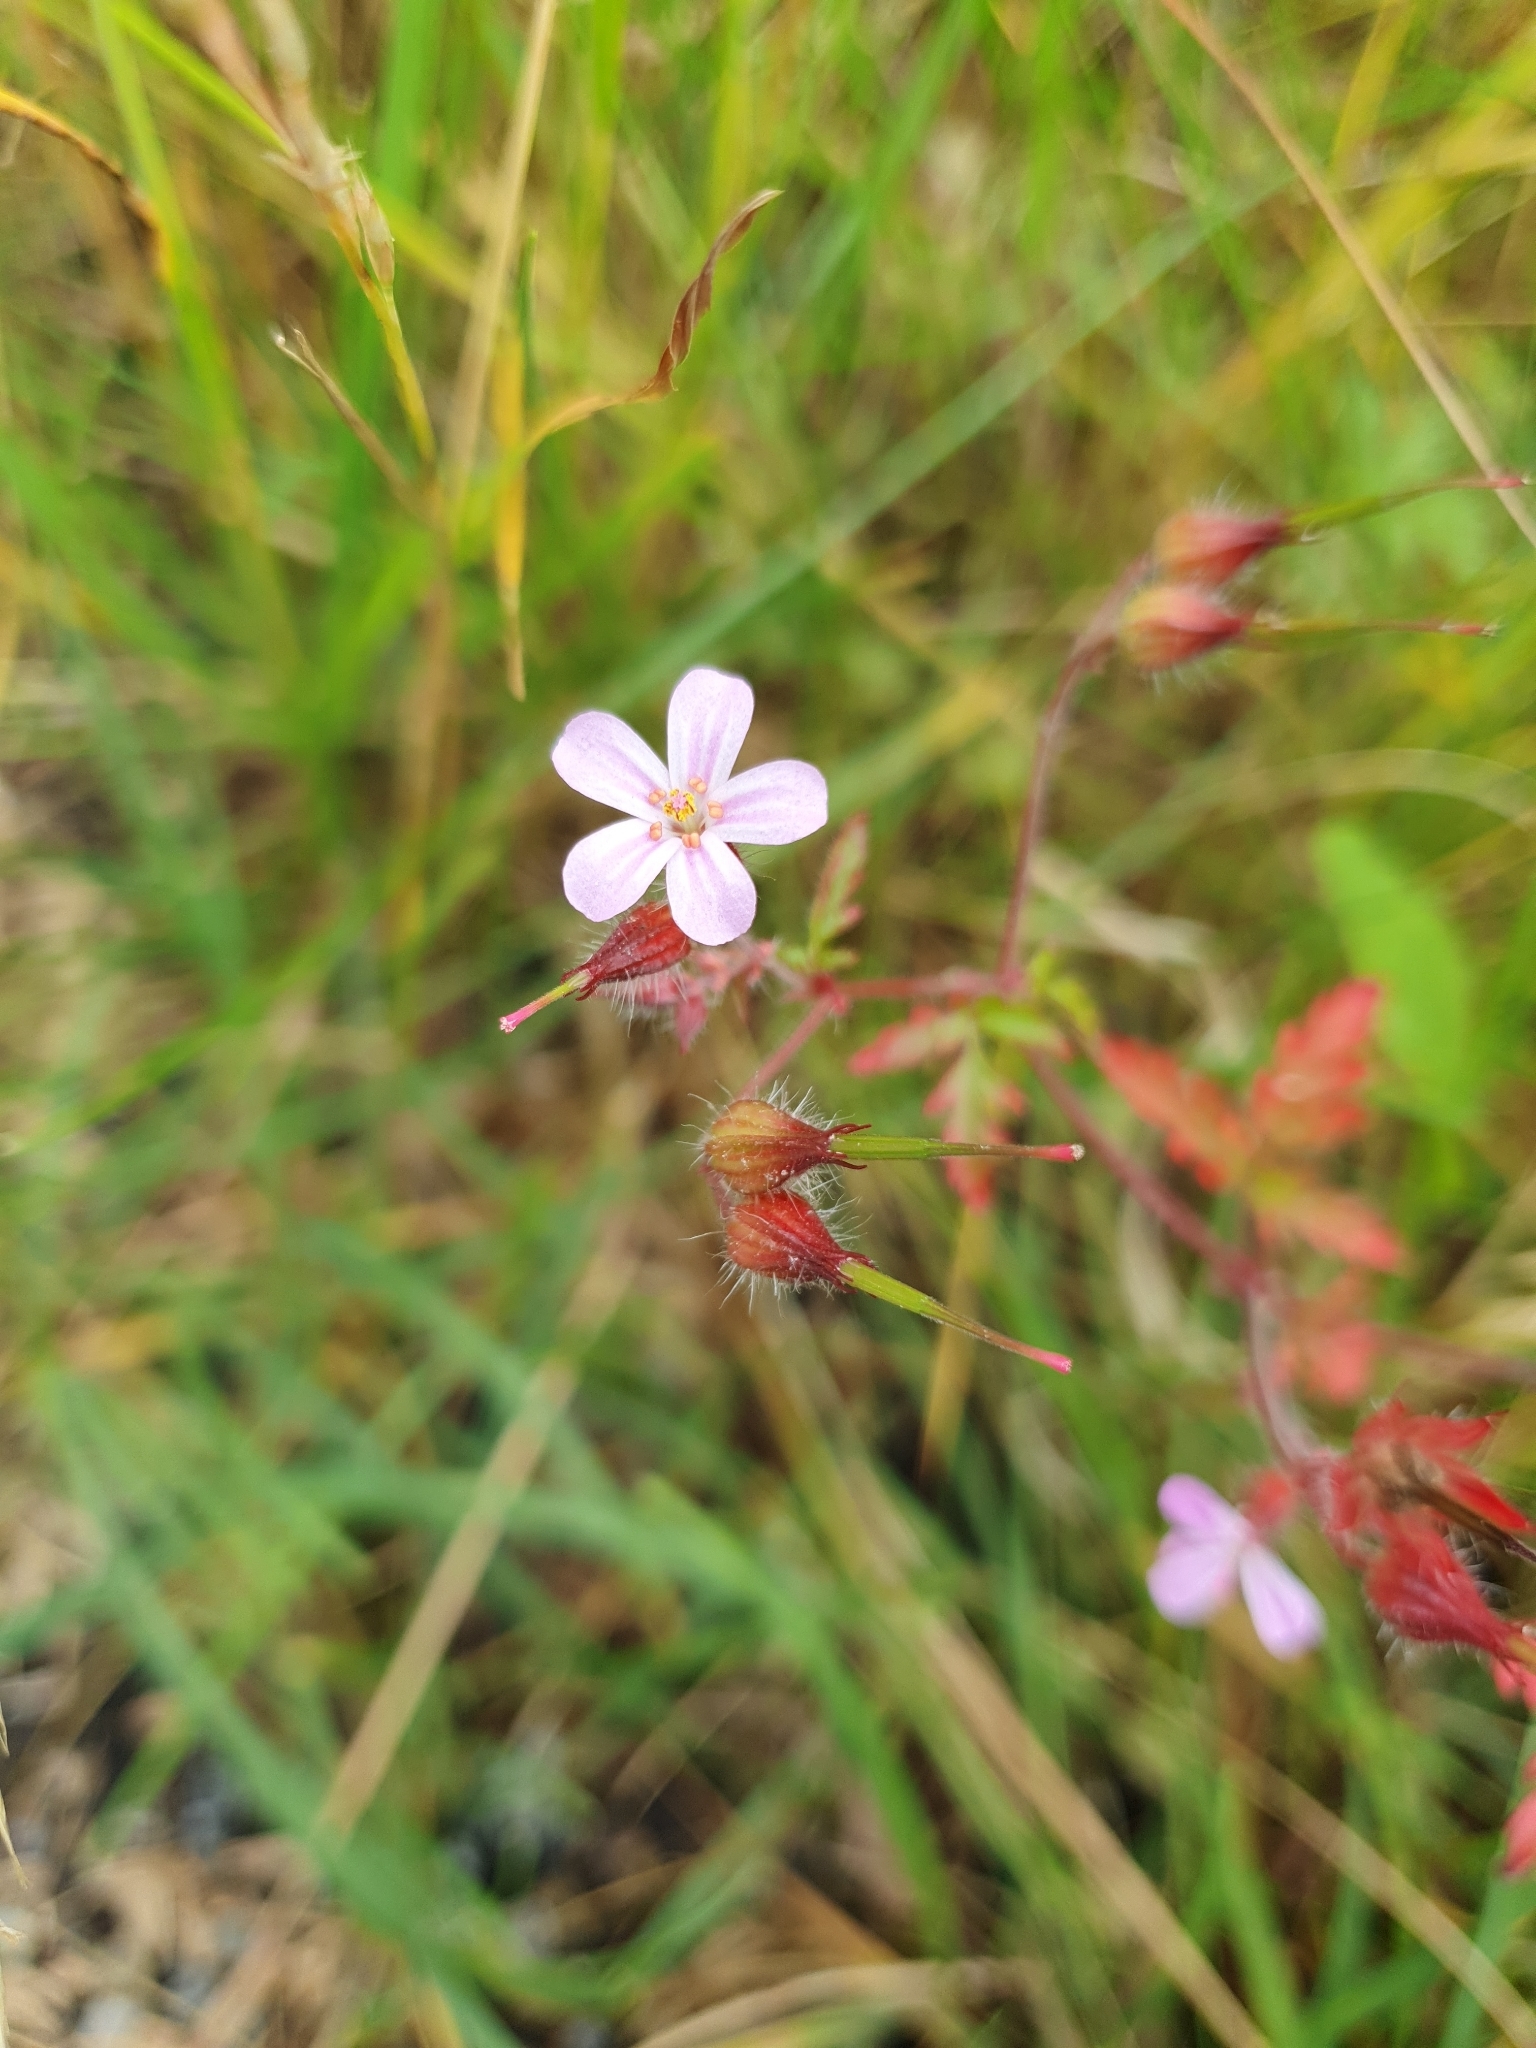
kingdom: Plantae
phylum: Tracheophyta
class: Magnoliopsida
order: Geraniales
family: Geraniaceae
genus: Geranium
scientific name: Geranium robertianum
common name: Herb-robert
